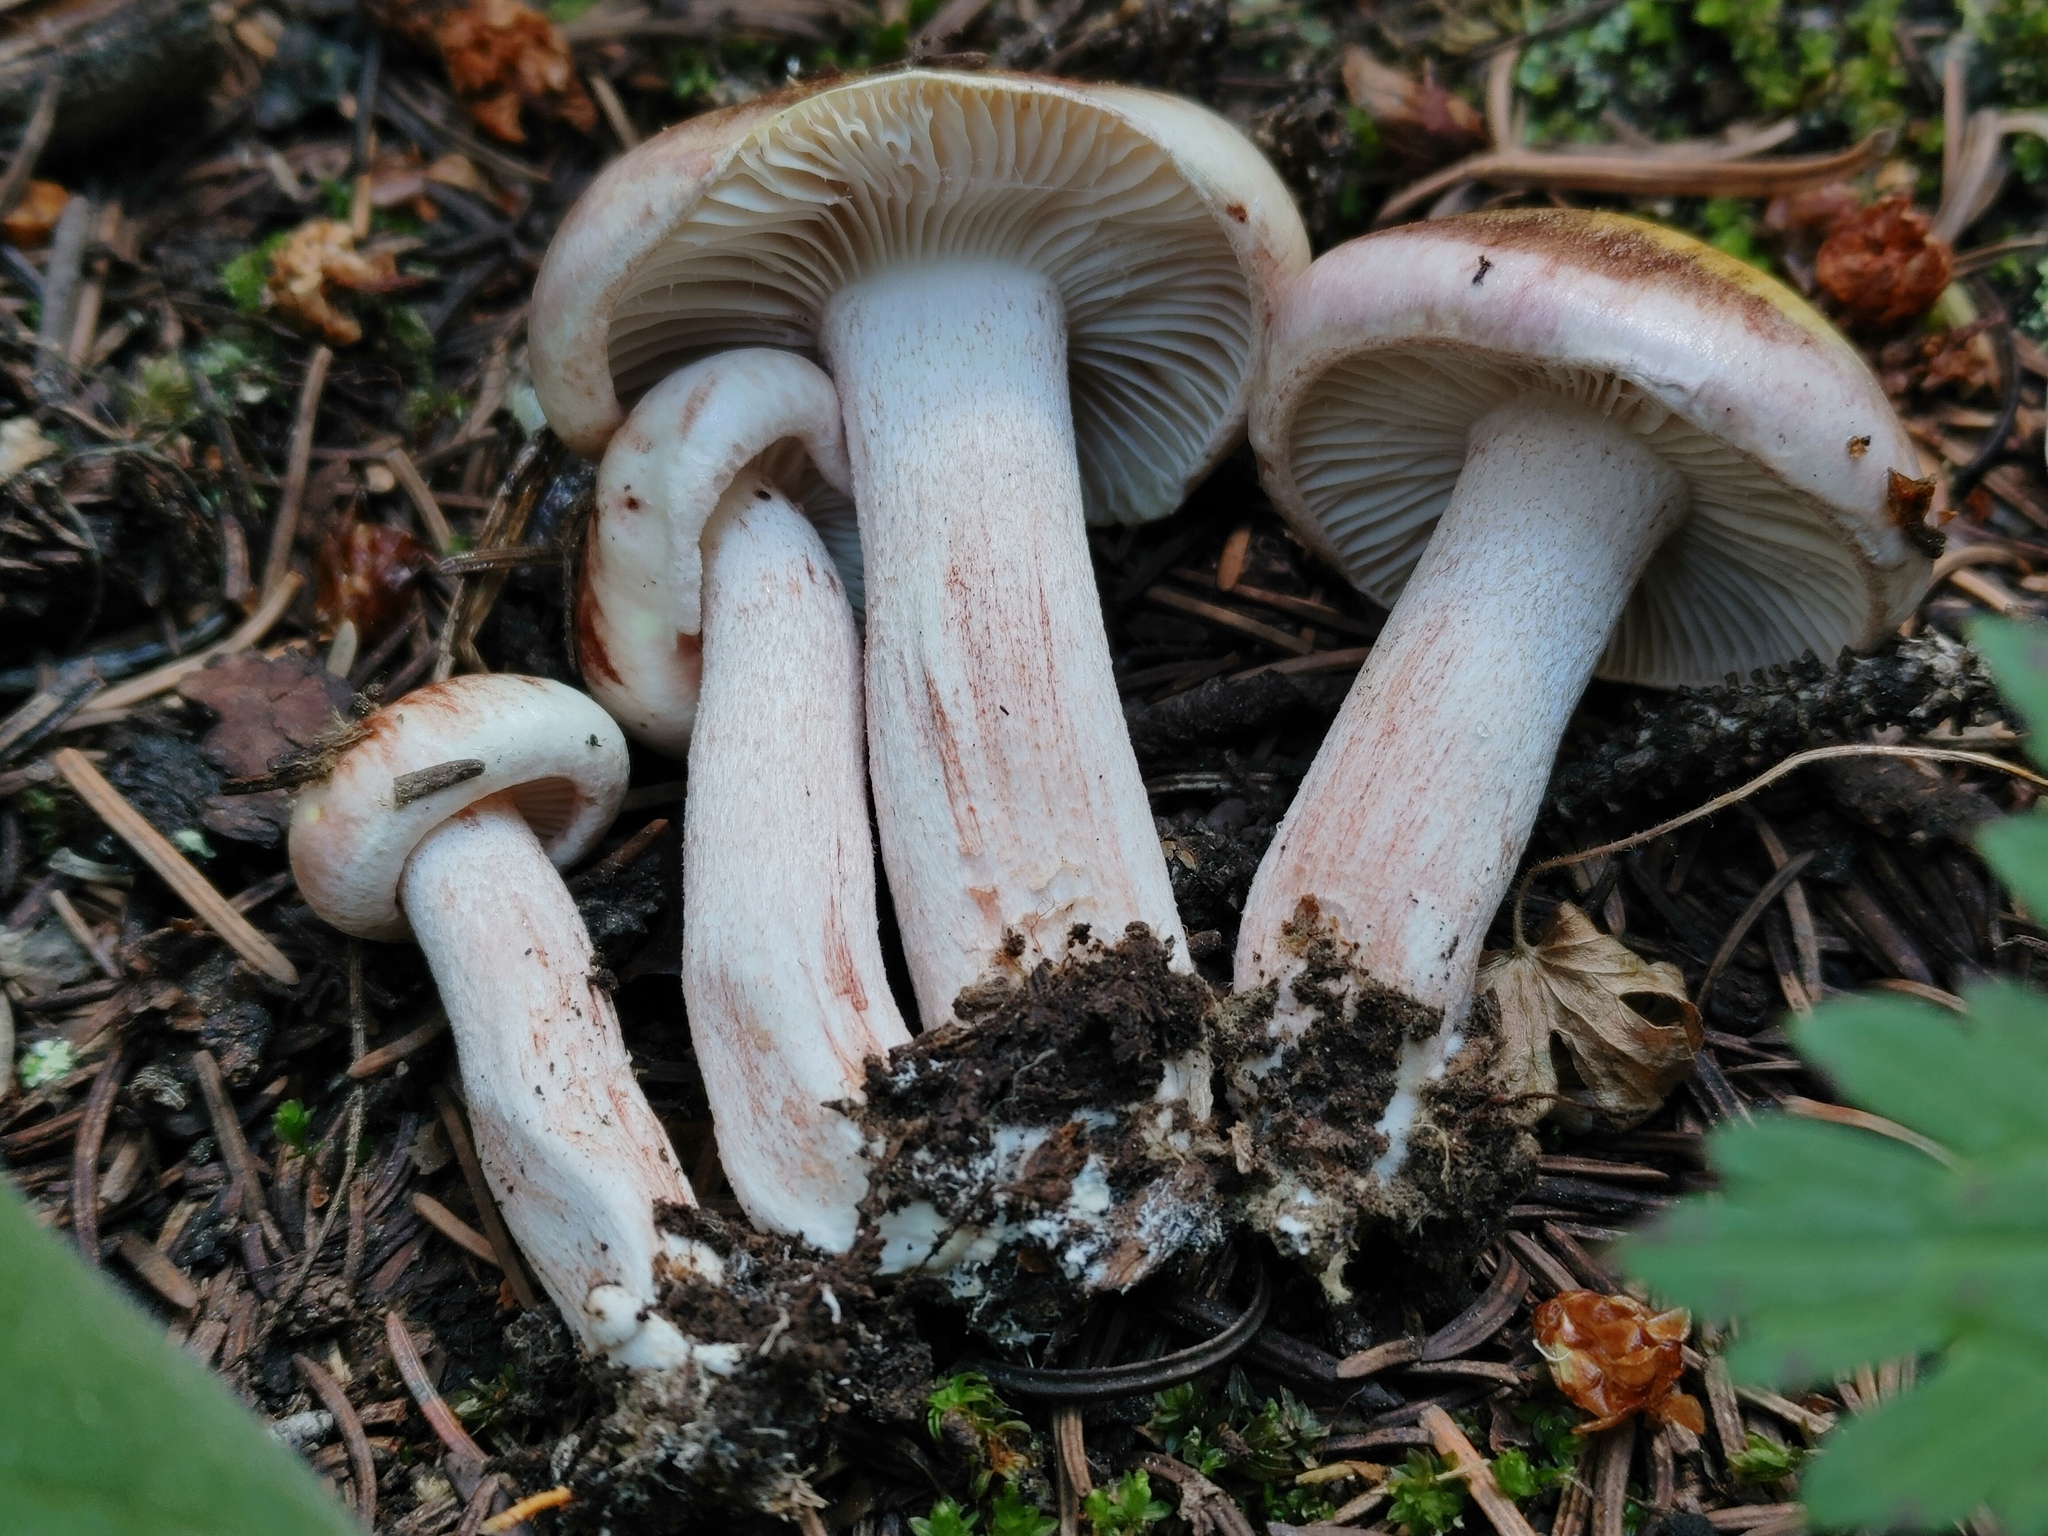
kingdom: Fungi
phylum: Basidiomycota
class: Agaricomycetes
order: Agaricales
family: Hygrophoraceae
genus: Hygrophorus
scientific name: Hygrophorus erubescens
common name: Blotched woodwax
